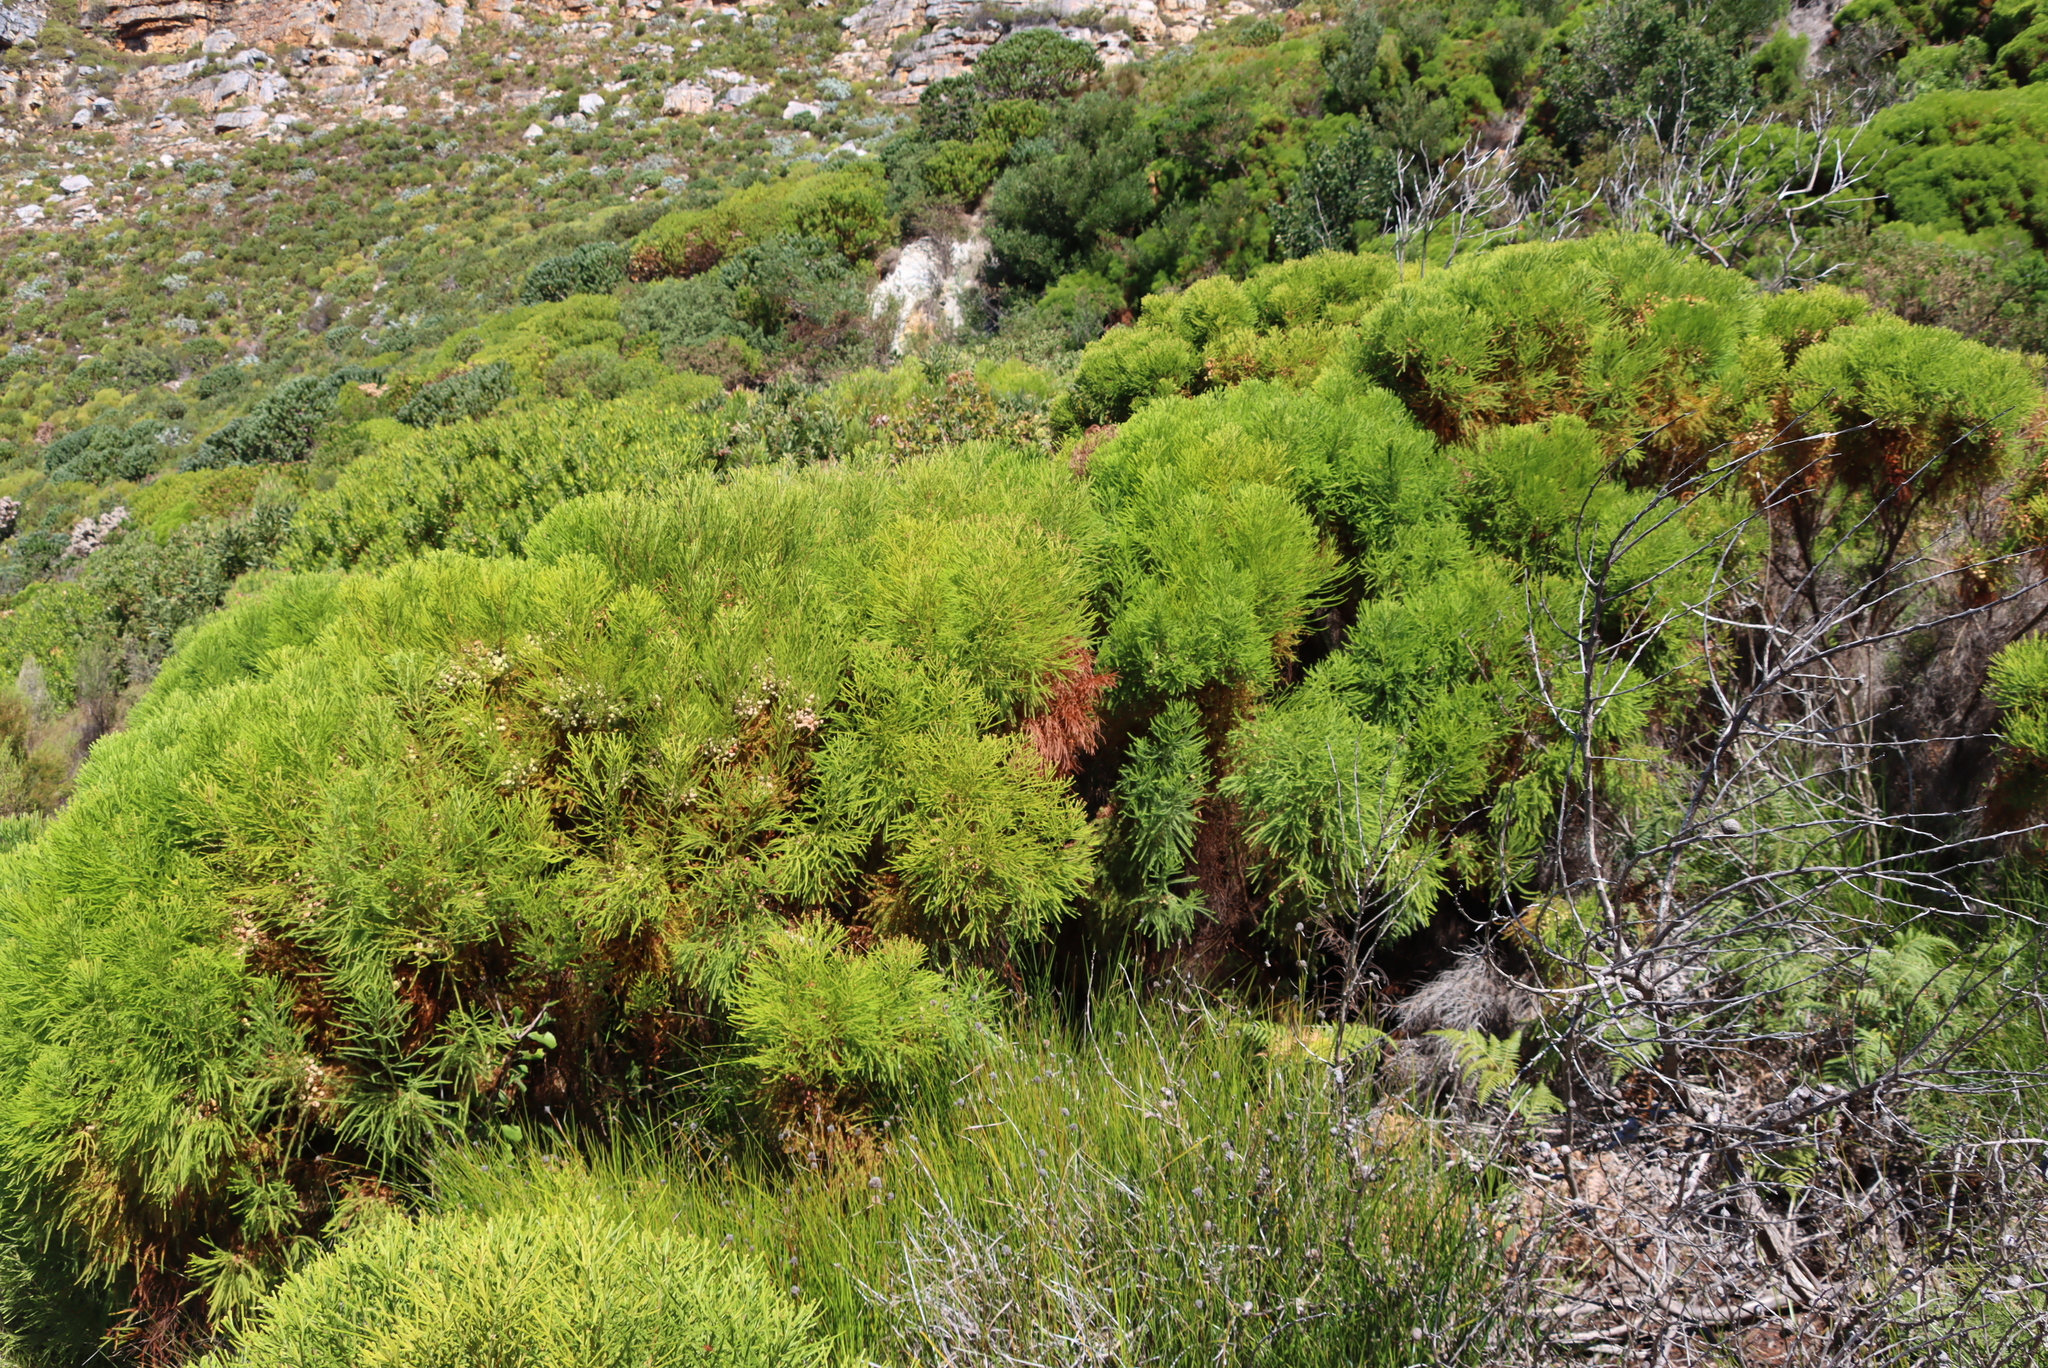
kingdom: Plantae
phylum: Tracheophyta
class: Magnoliopsida
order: Bruniales
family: Bruniaceae
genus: Berzelia
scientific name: Berzelia lanuginosa
